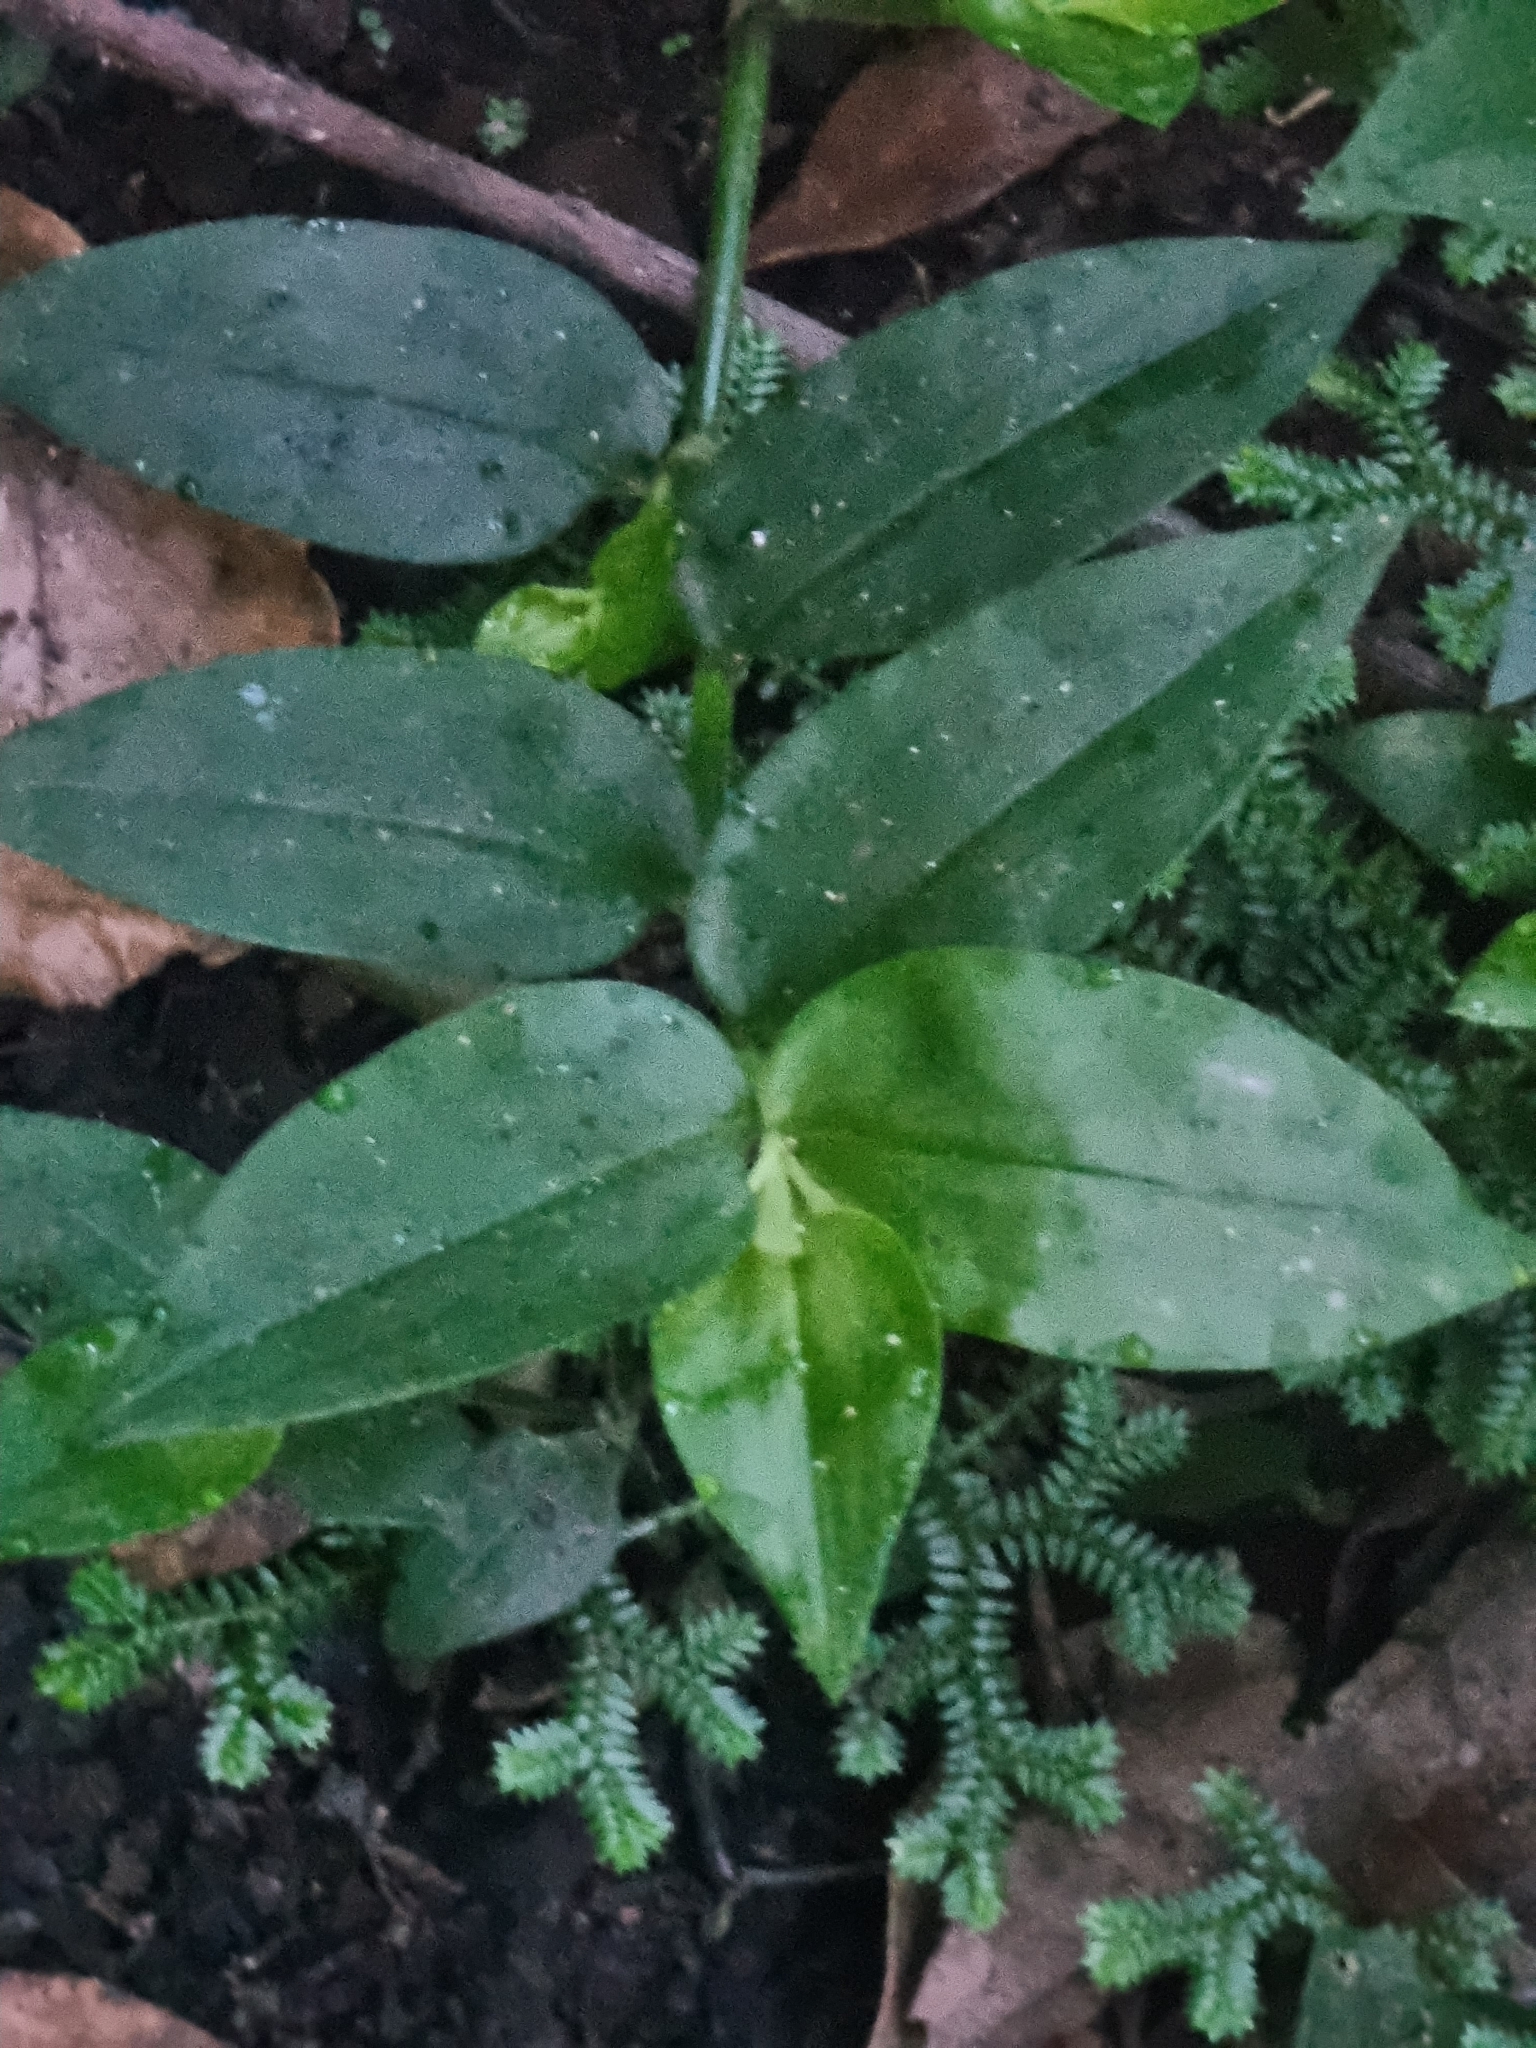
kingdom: Plantae
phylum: Tracheophyta
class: Liliopsida
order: Commelinales
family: Commelinaceae
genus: Tradescantia
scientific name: Tradescantia fluminensis
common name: Wandering-jew
